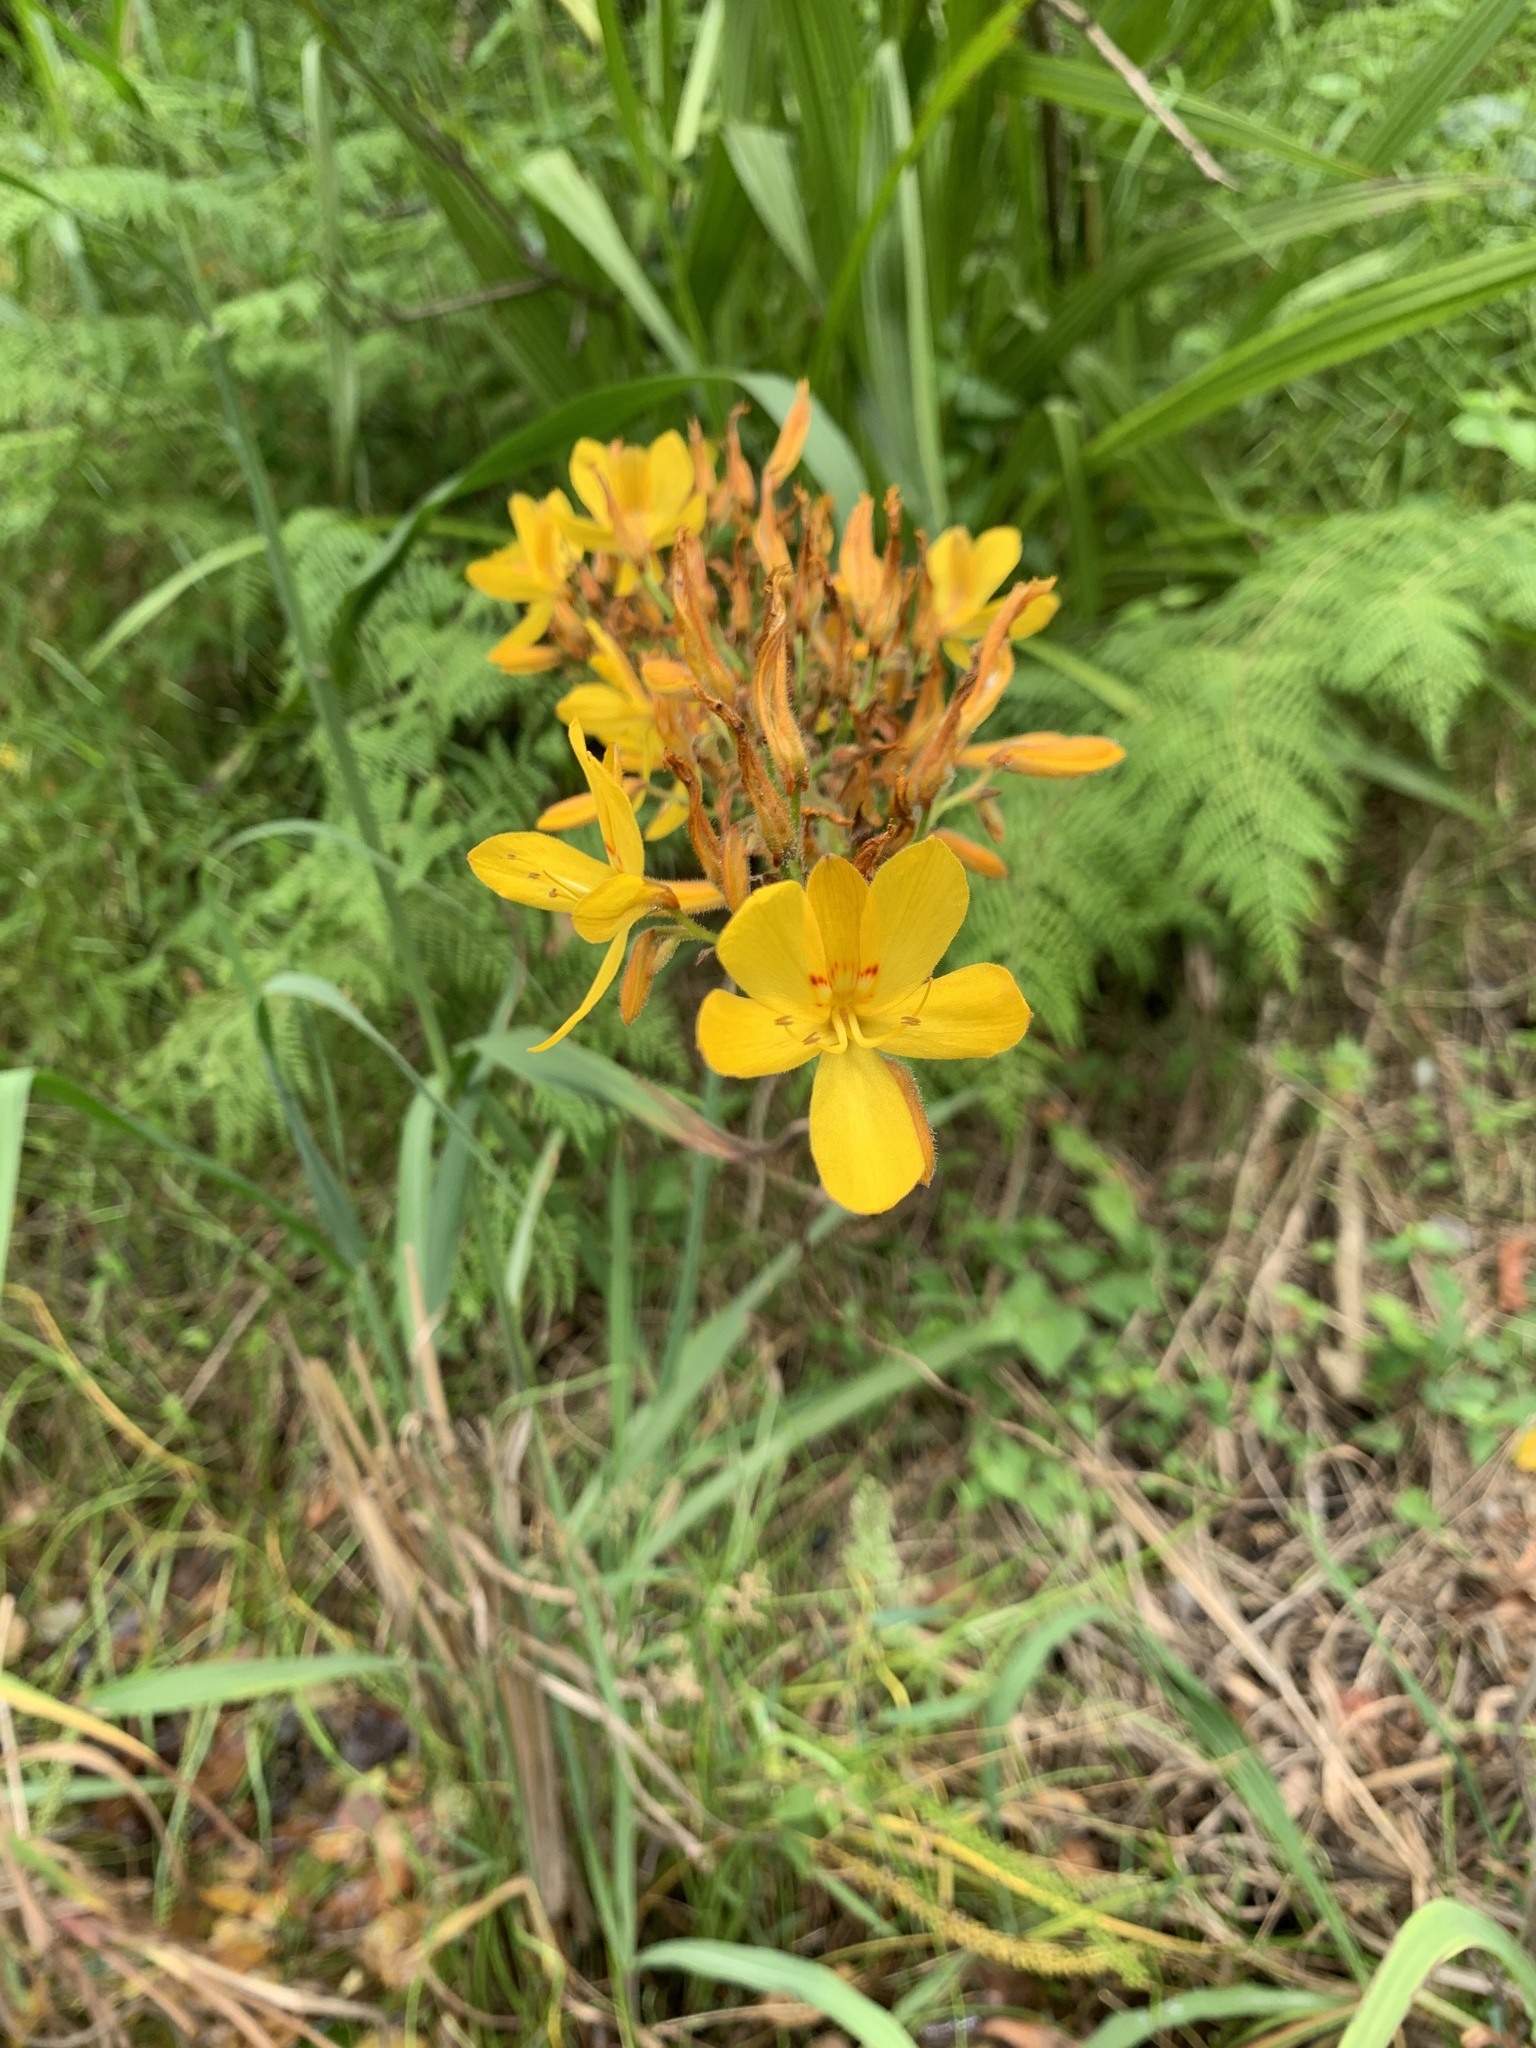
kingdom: Plantae
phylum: Tracheophyta
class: Liliopsida
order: Commelinales
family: Haemodoraceae
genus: Wachendorfia
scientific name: Wachendorfia thyrsiflora
